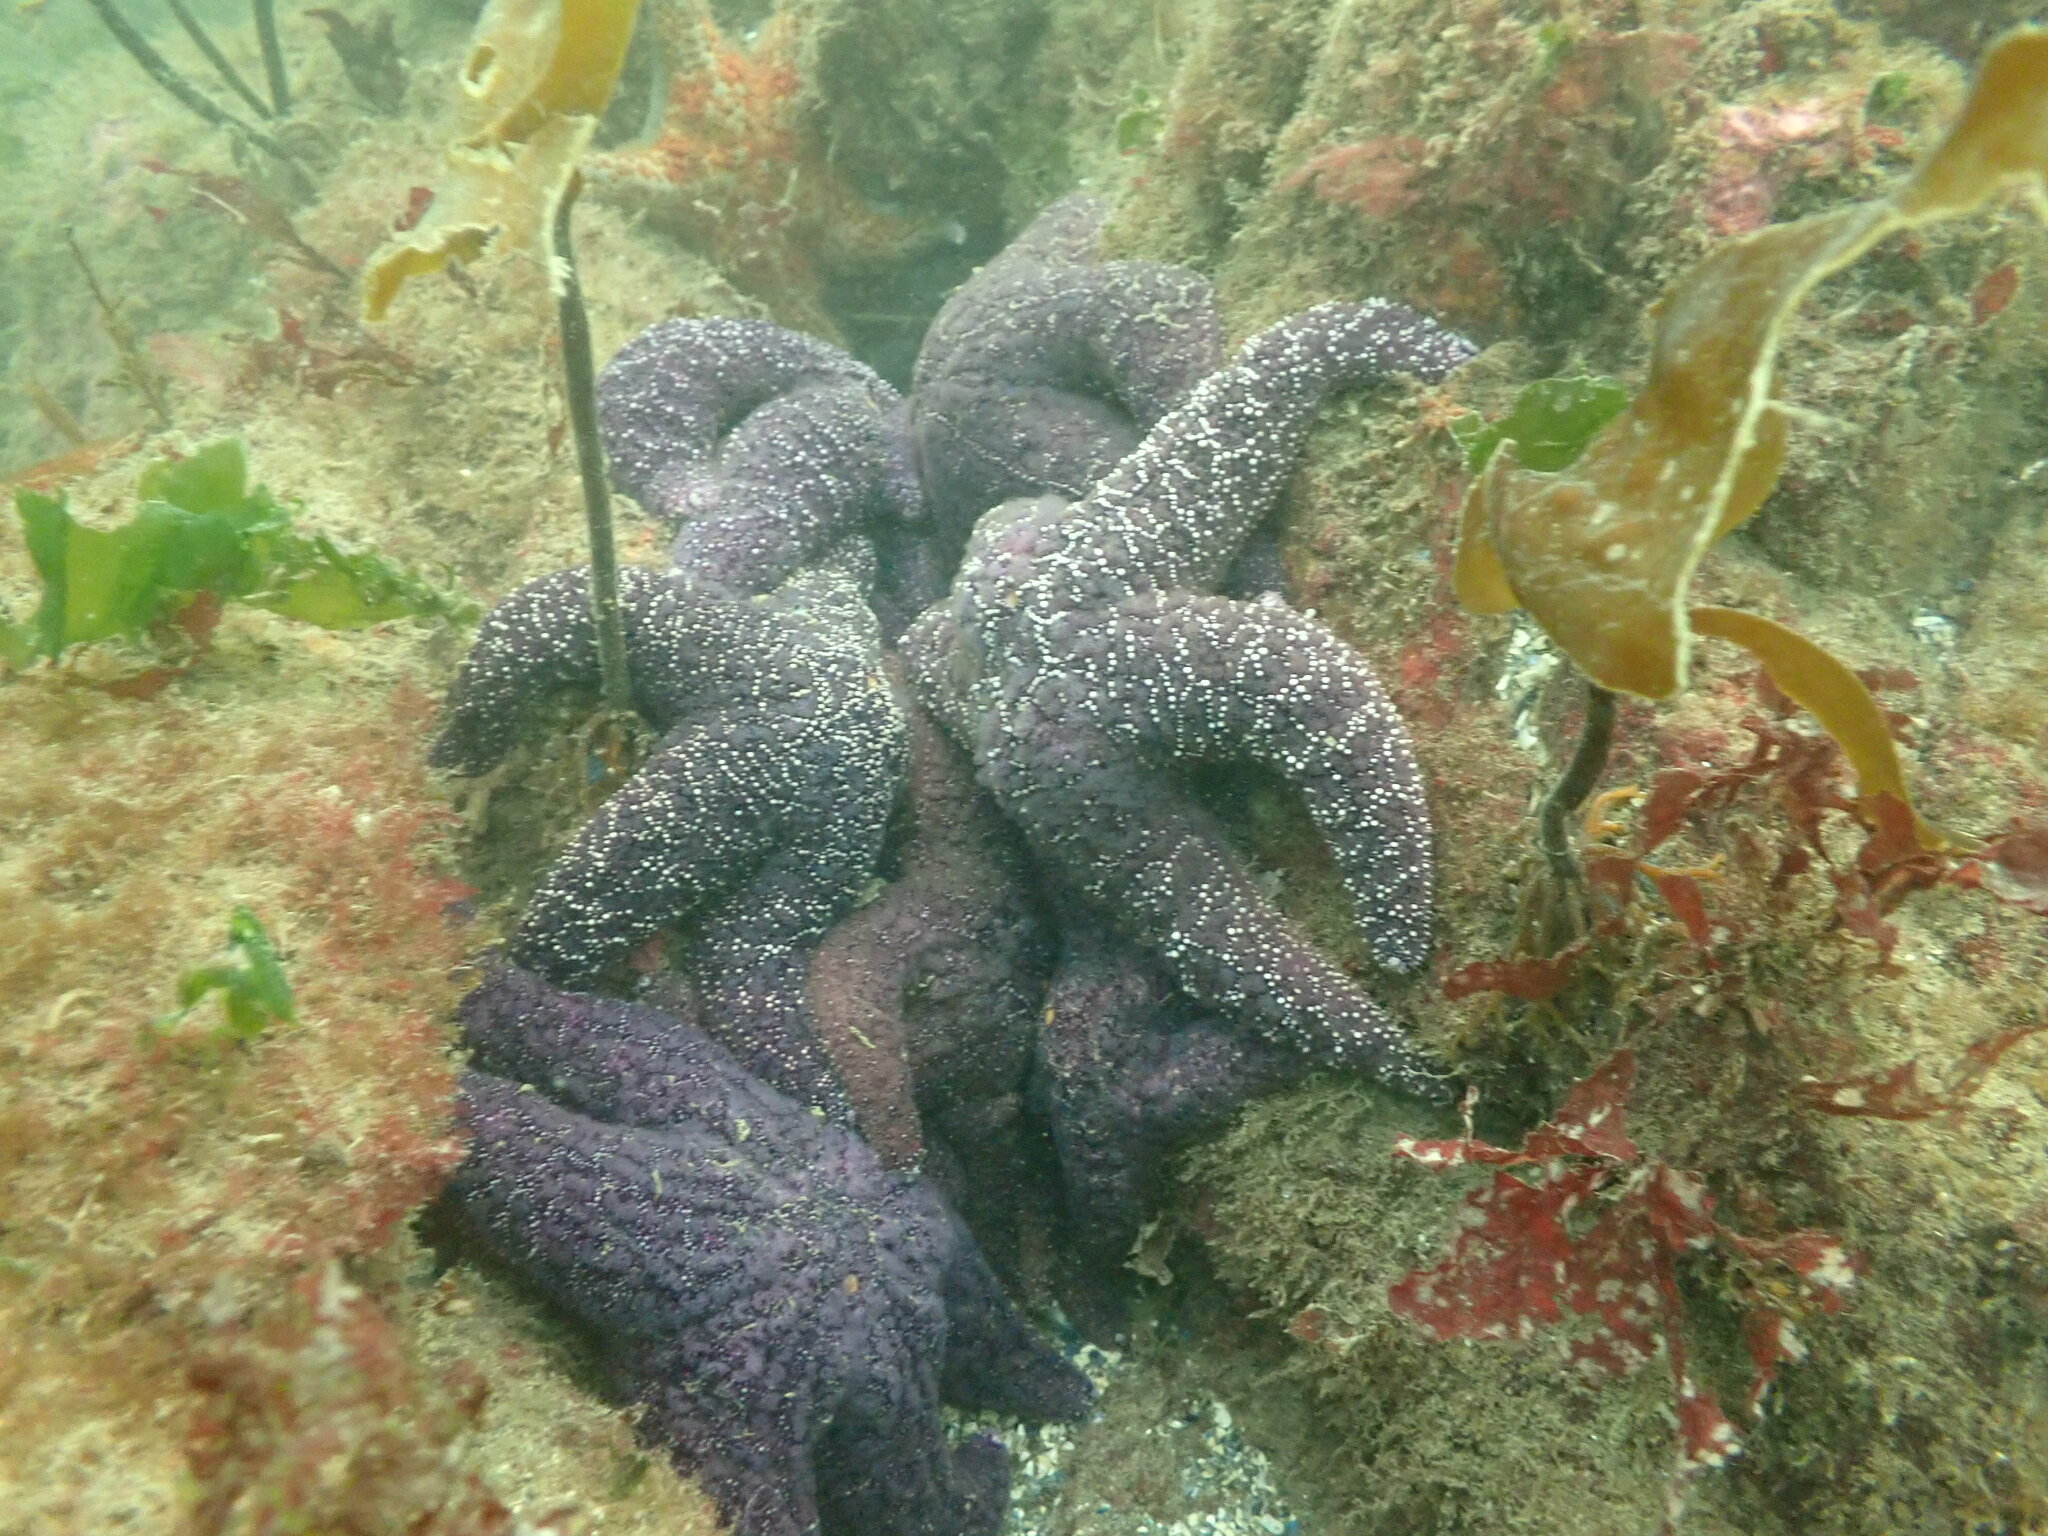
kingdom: Animalia
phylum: Echinodermata
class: Asteroidea
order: Forcipulatida
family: Asteriidae
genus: Pisaster
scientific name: Pisaster ochraceus
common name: Ochre stars
